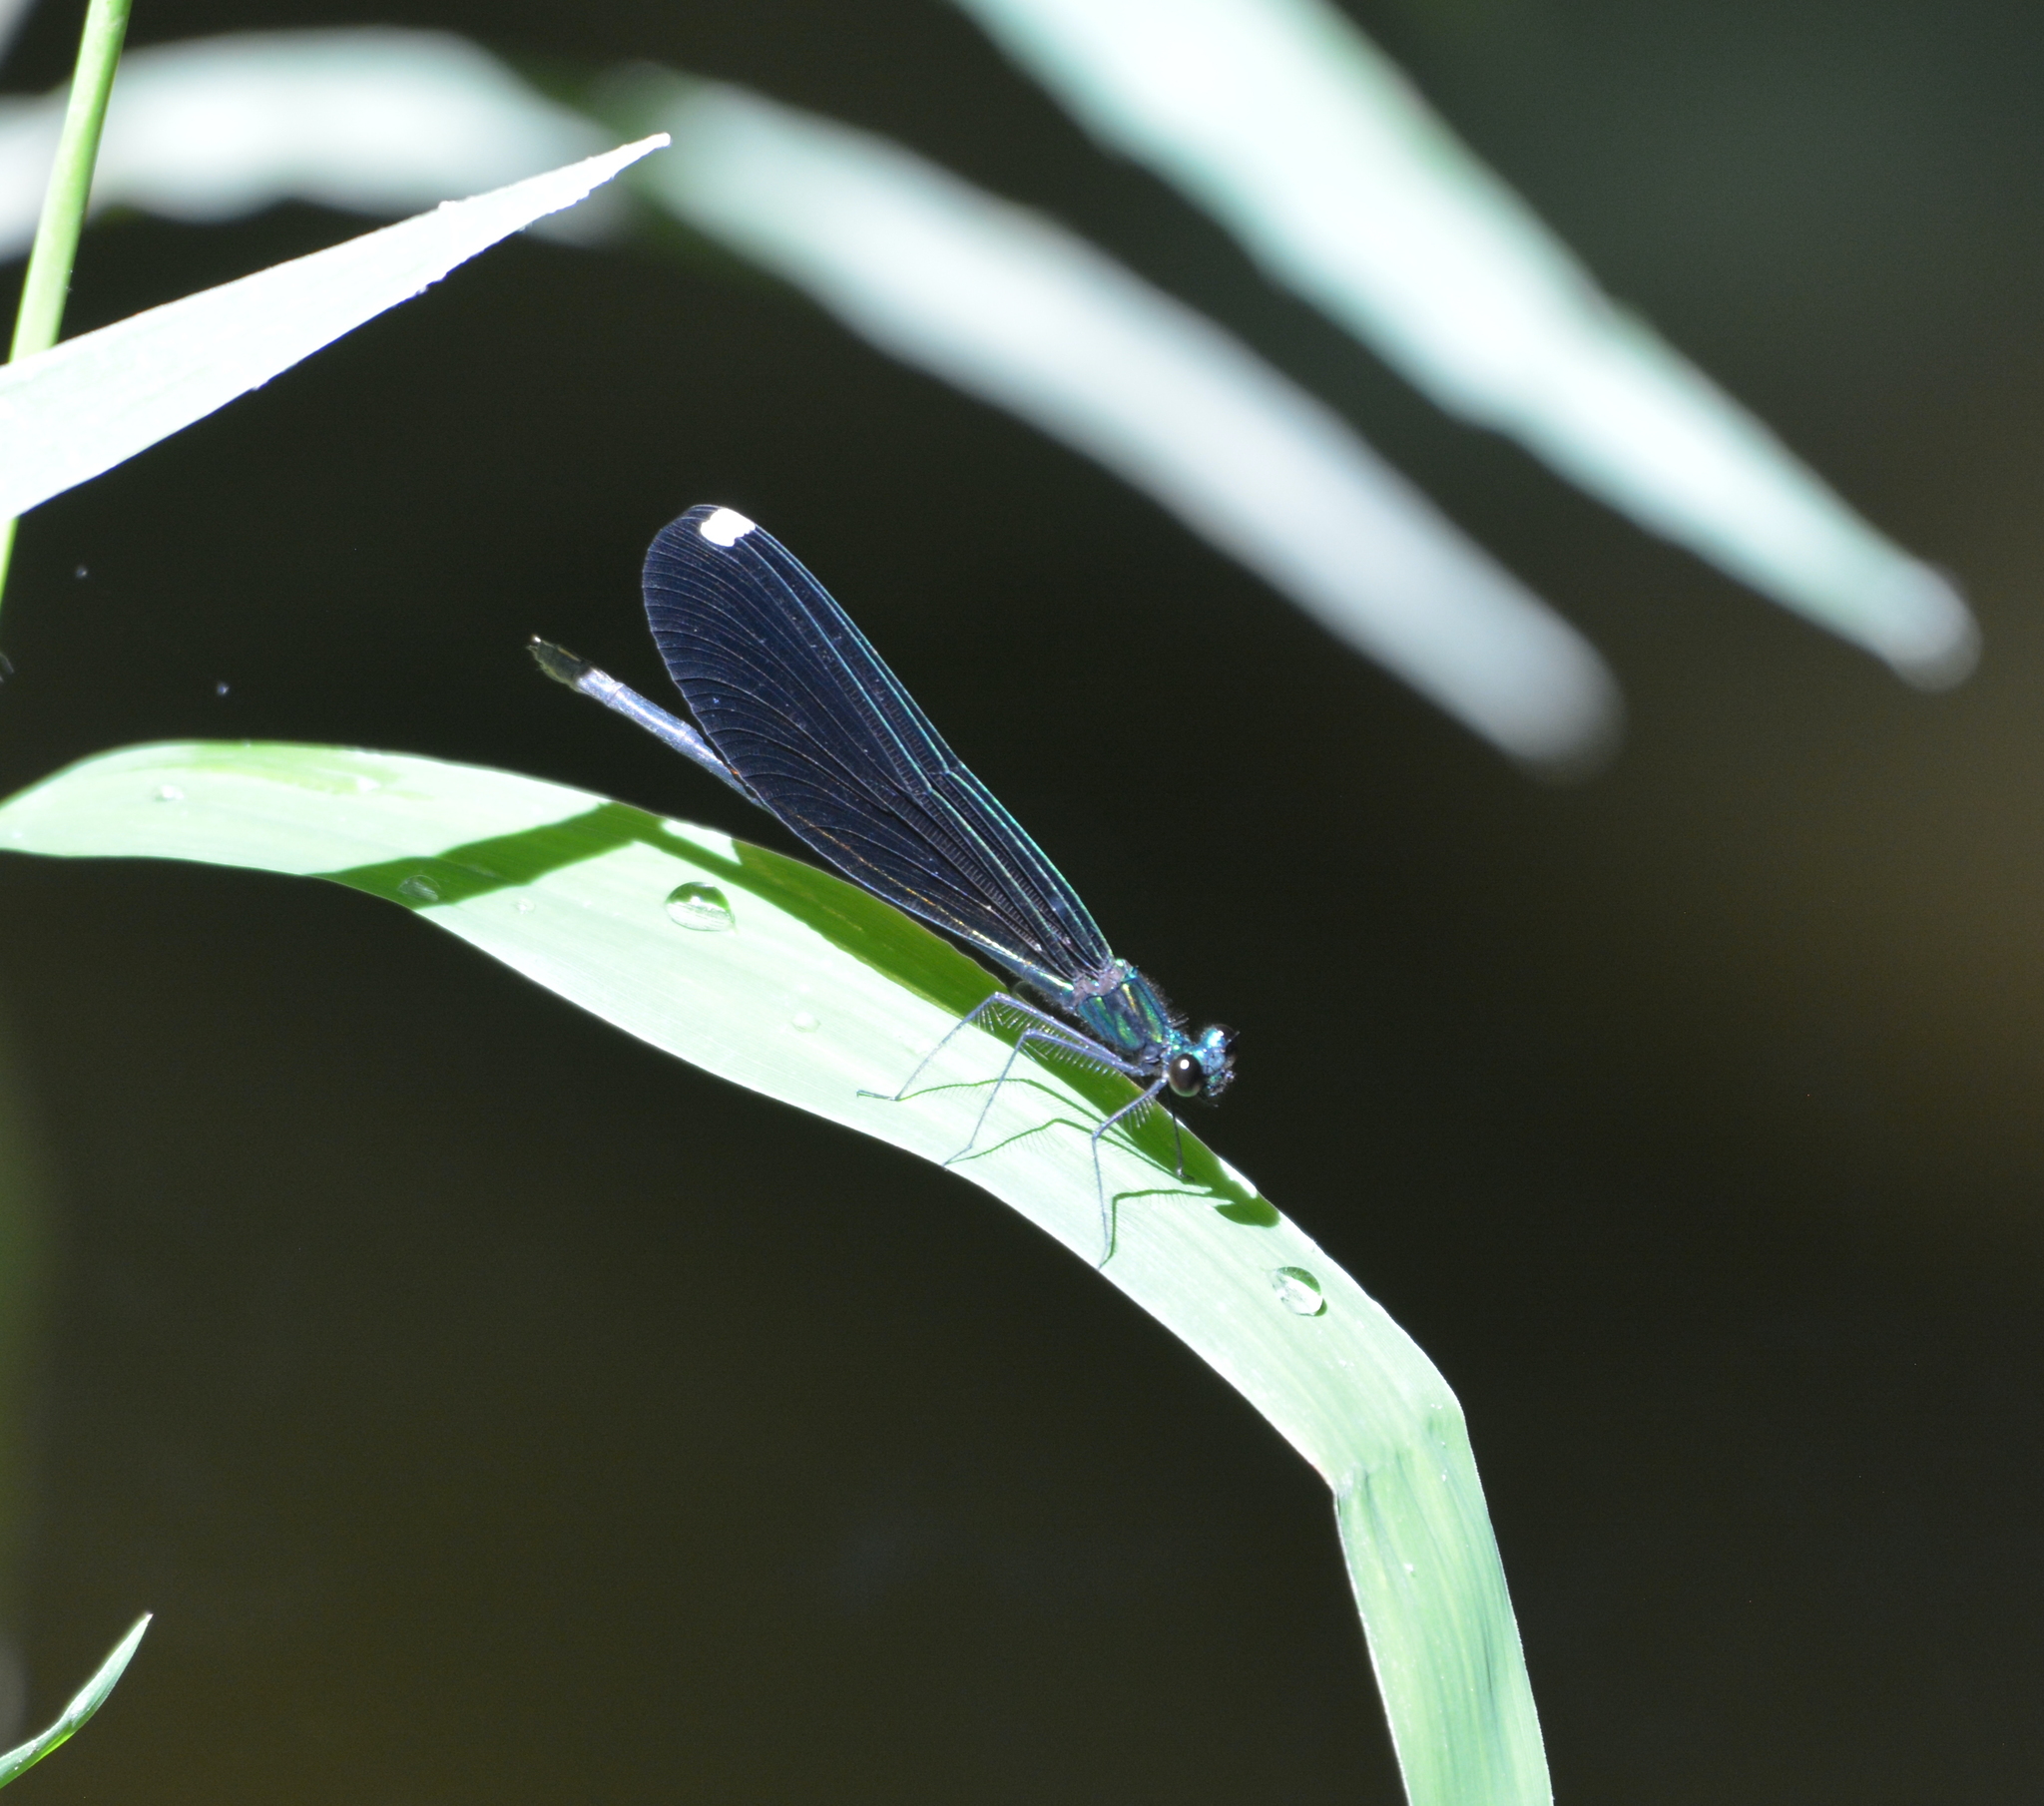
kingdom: Animalia
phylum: Arthropoda
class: Insecta
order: Odonata
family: Calopterygidae
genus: Calopteryx
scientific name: Calopteryx maculata
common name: Ebony jewelwing
